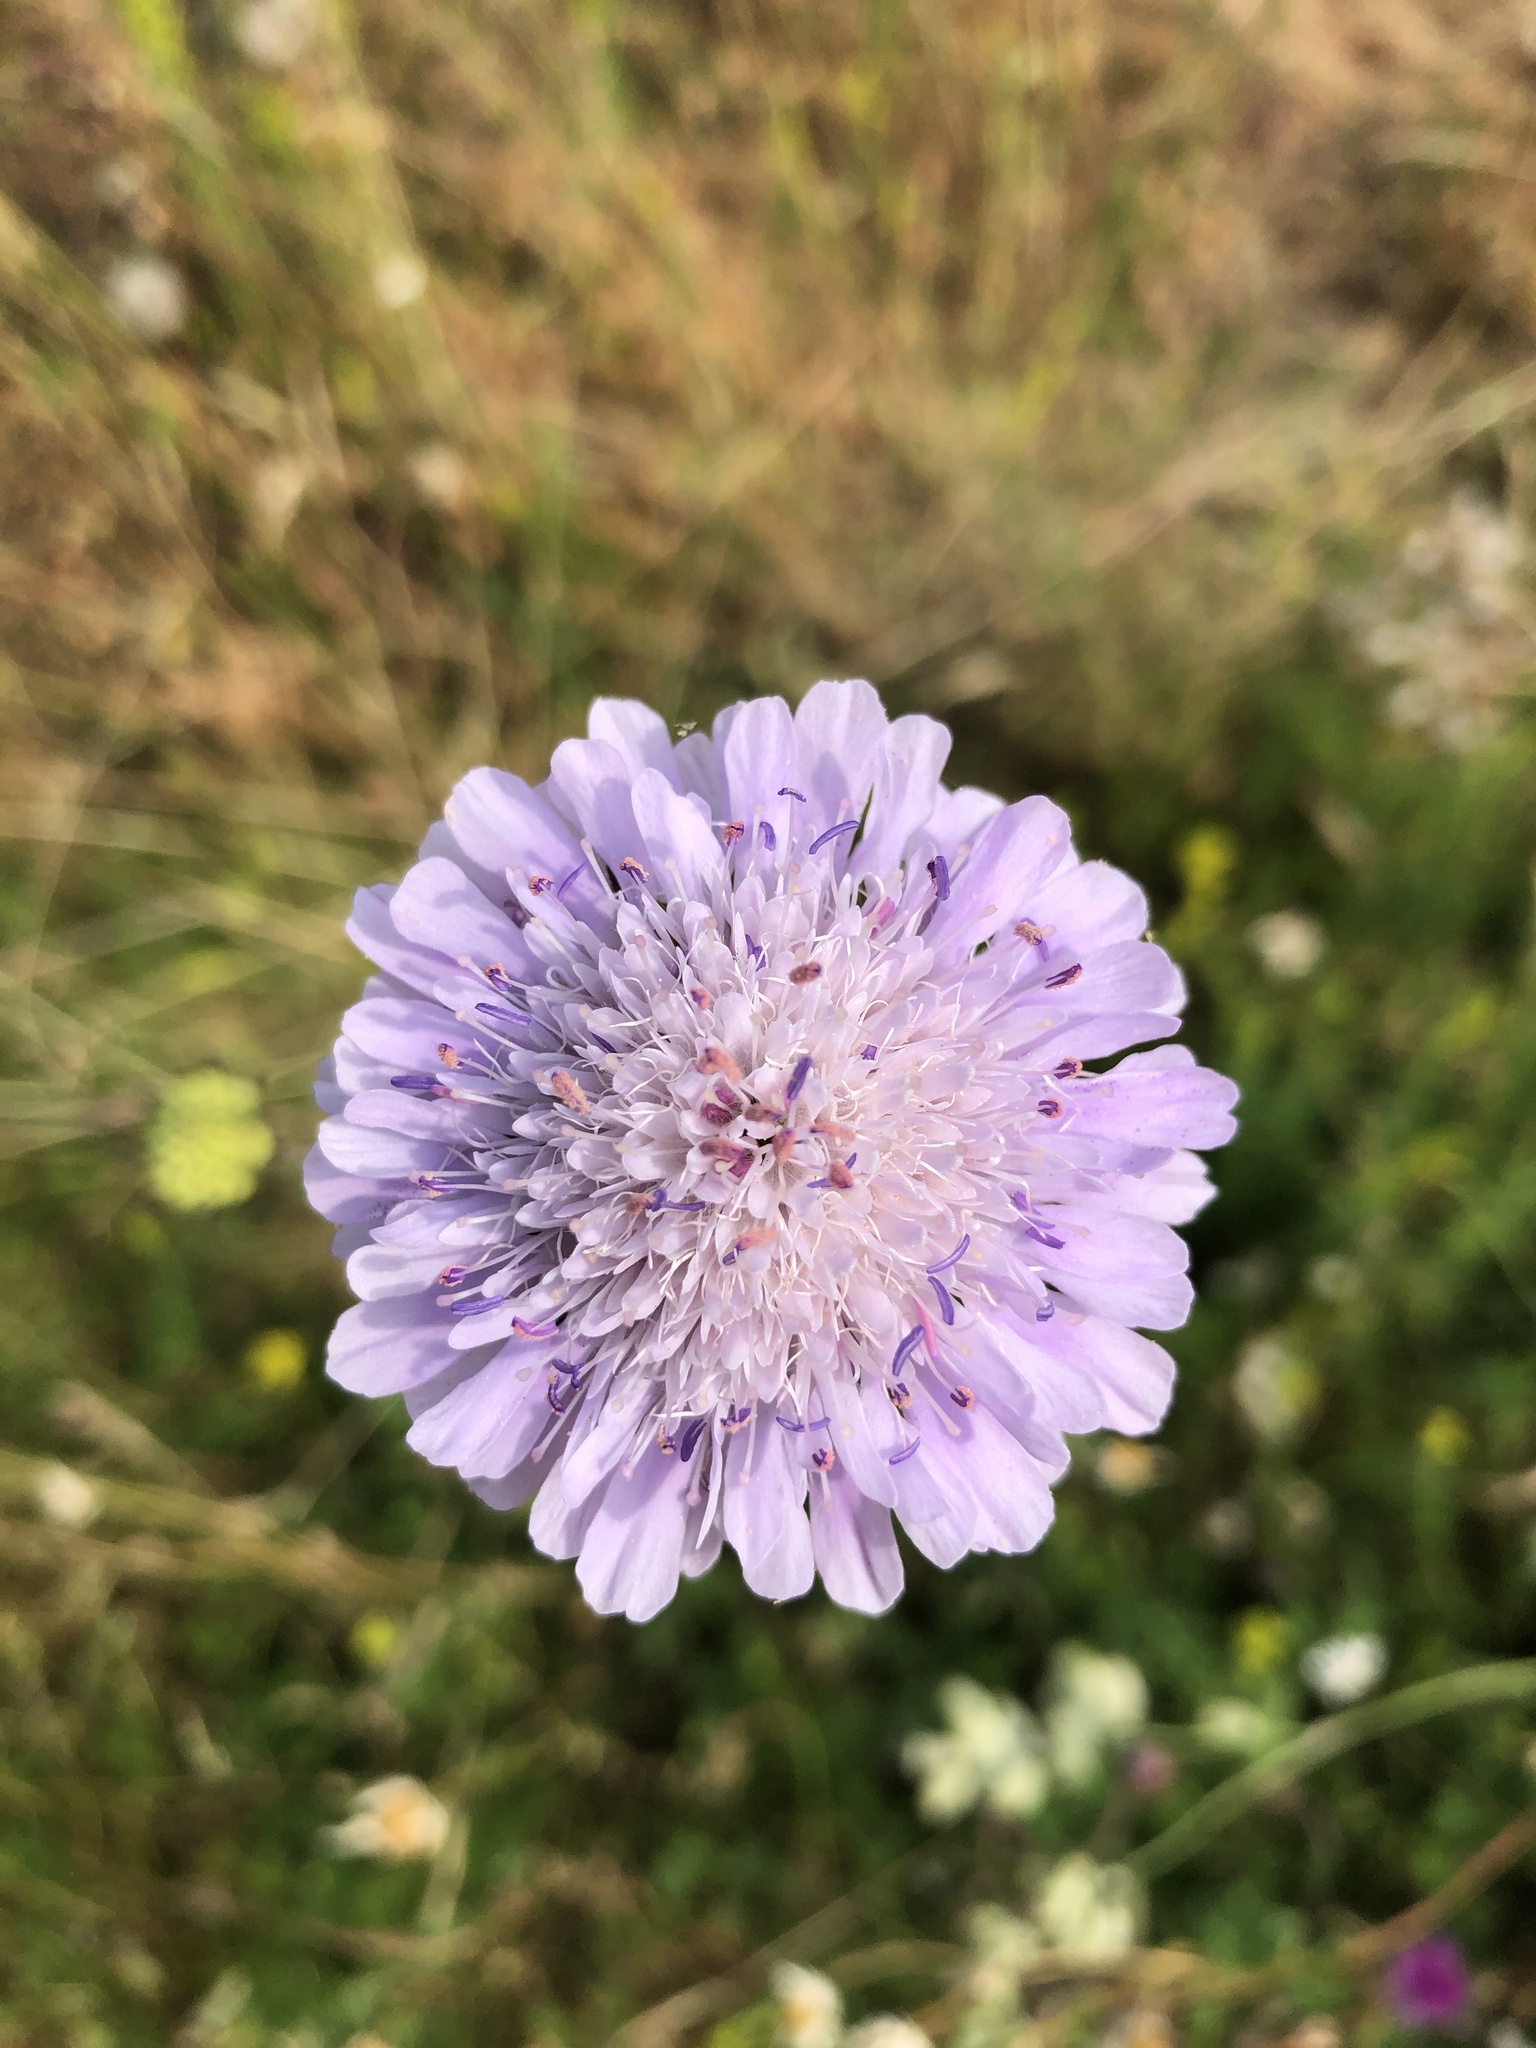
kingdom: Plantae
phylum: Tracheophyta
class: Magnoliopsida
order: Dipsacales
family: Caprifoliaceae
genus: Knautia
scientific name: Knautia arvensis
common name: Field scabiosa
